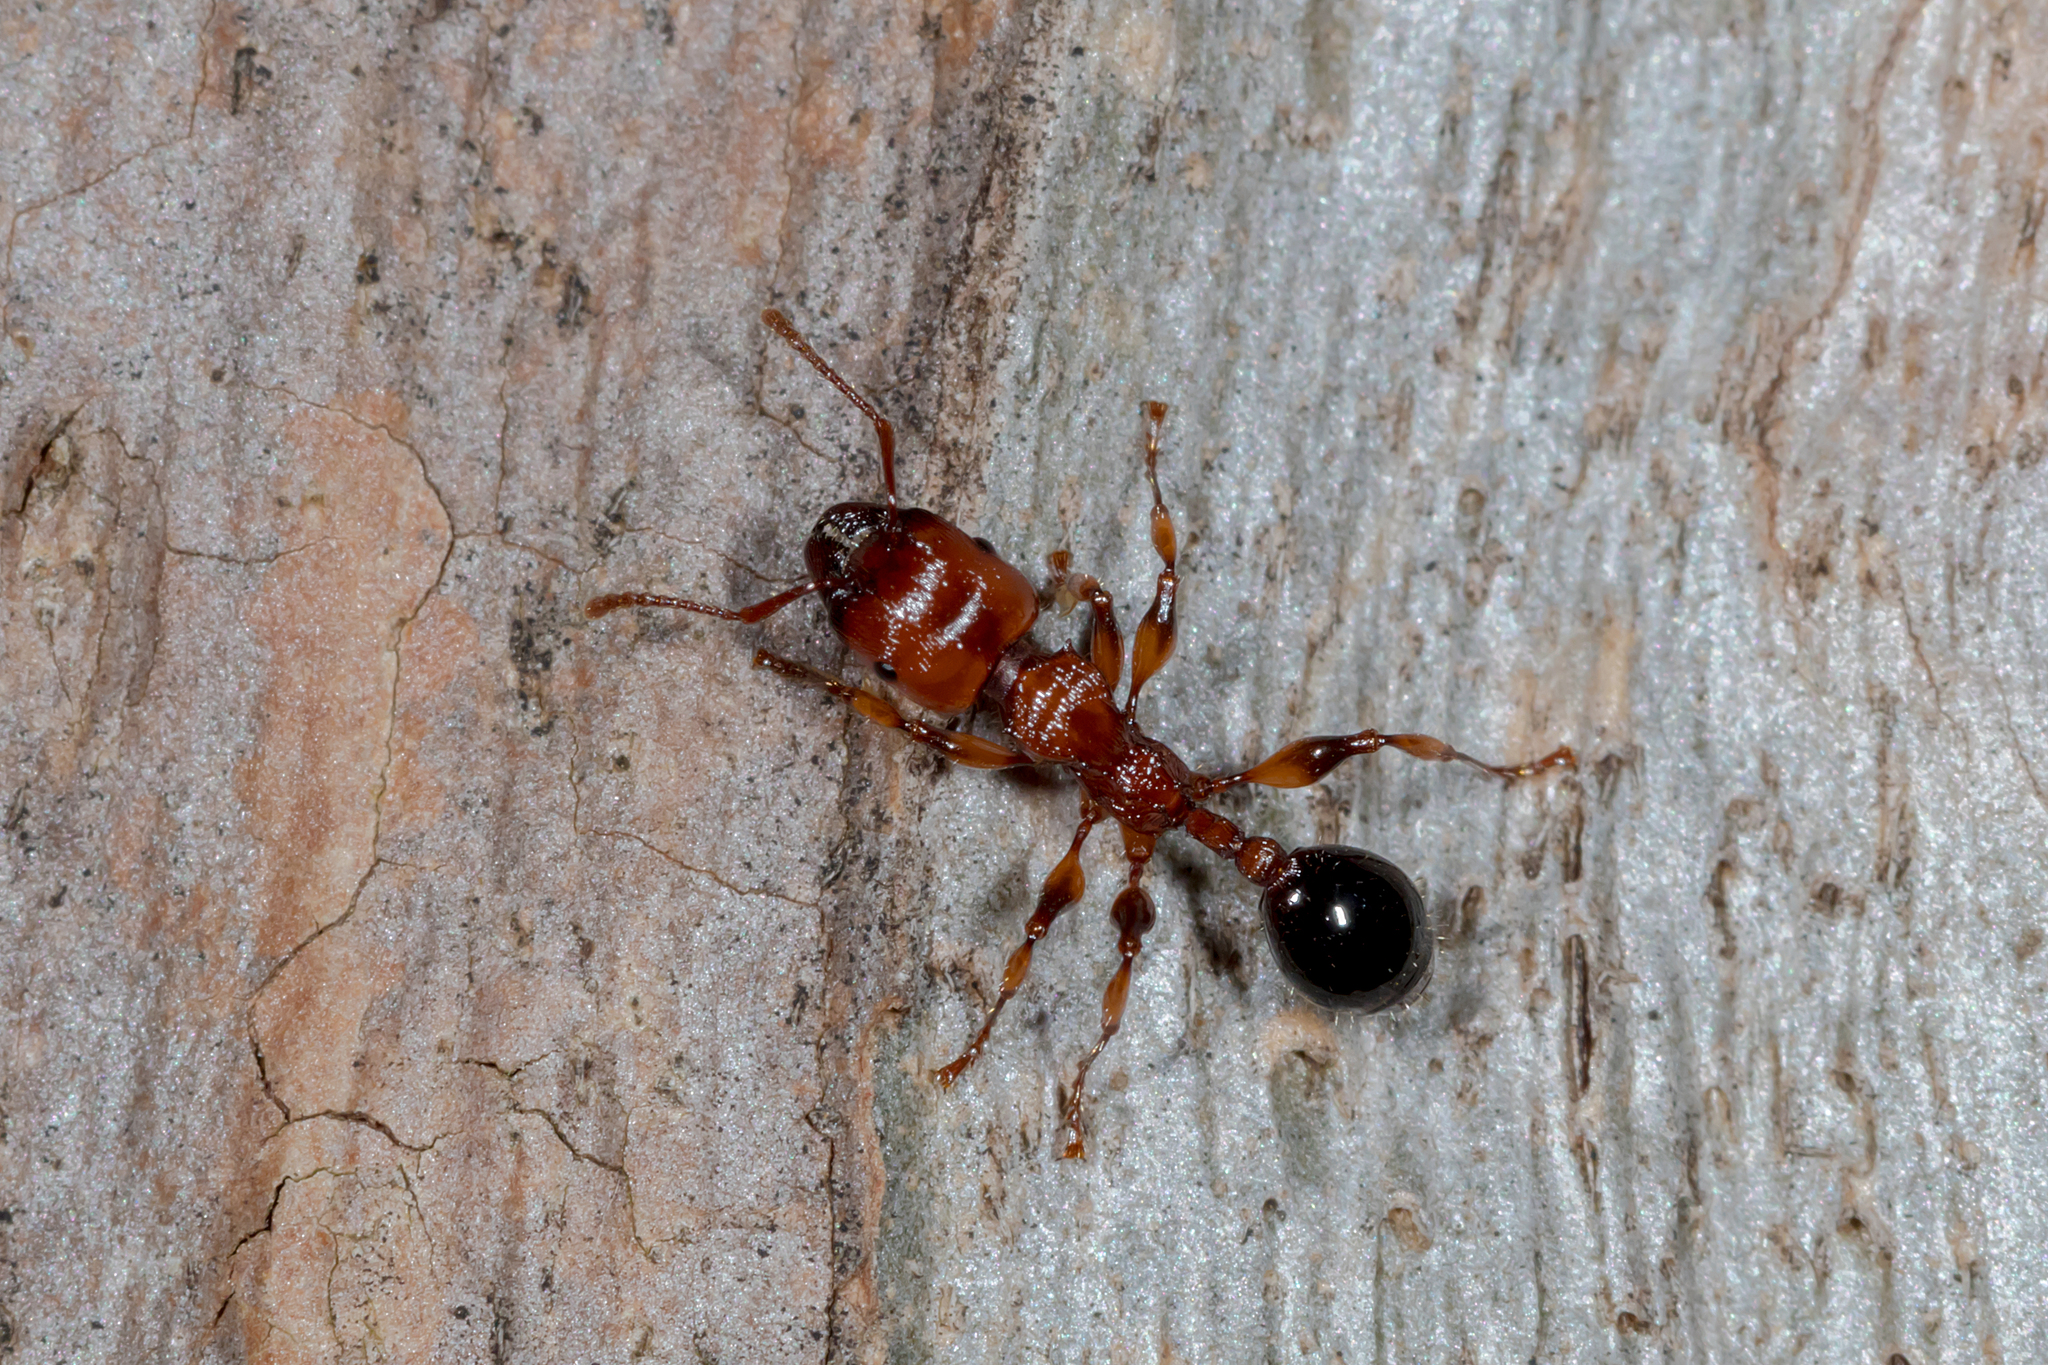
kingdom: Animalia
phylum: Arthropoda
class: Insecta
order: Hymenoptera
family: Formicidae
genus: Podomyrma
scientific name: Podomyrma gratiosa
